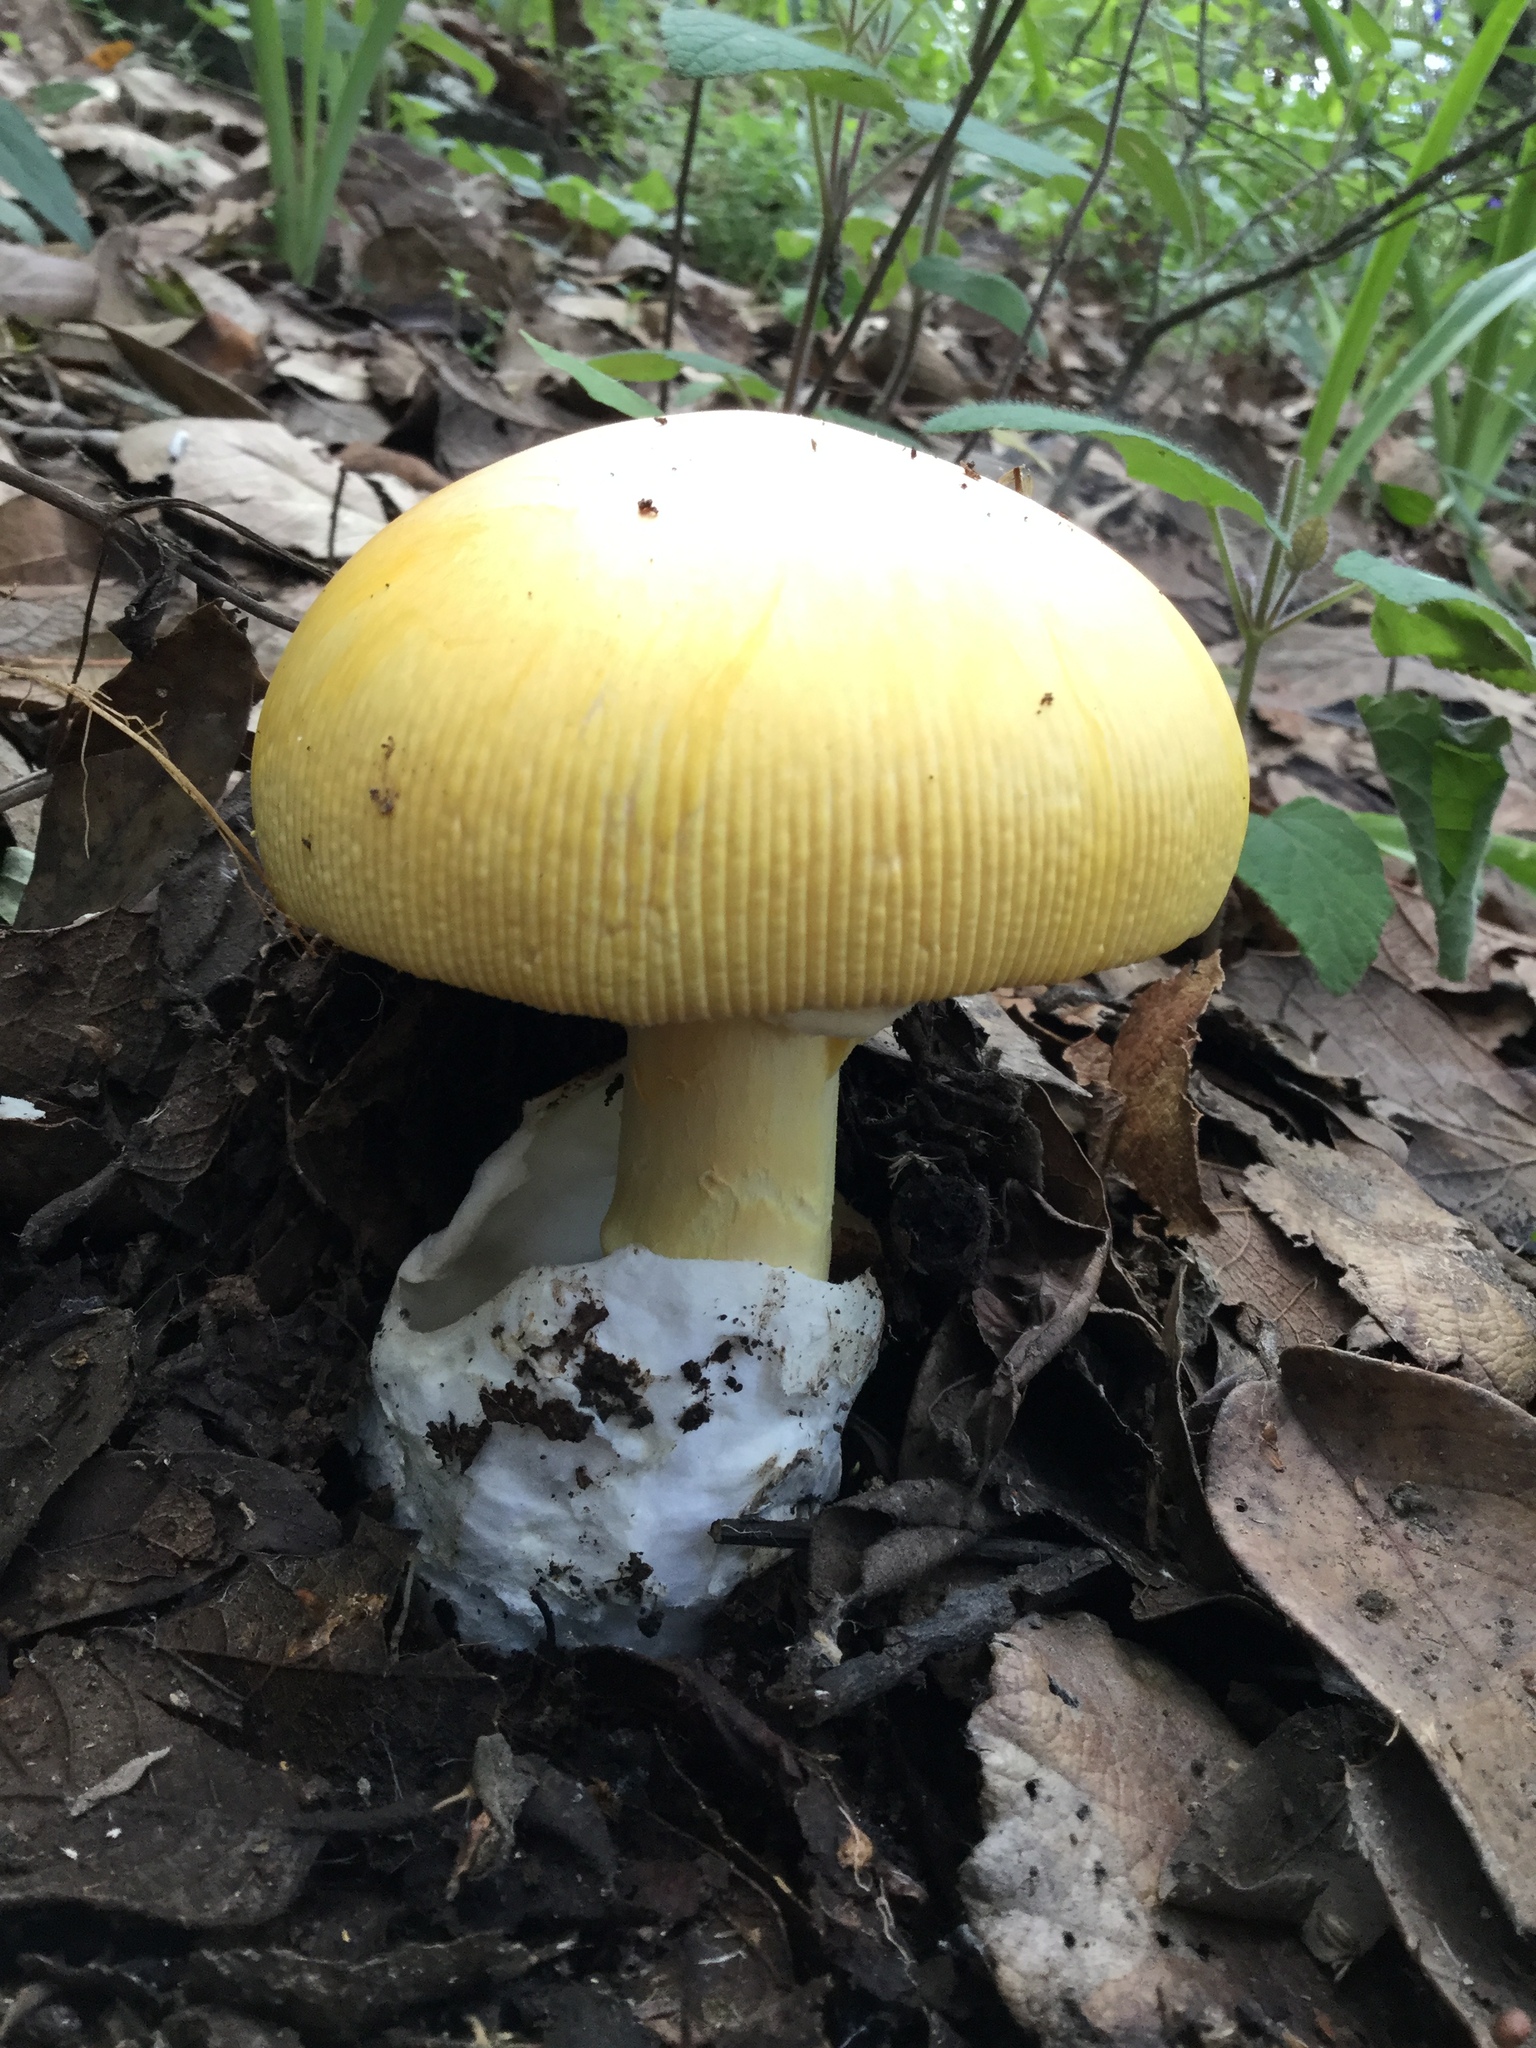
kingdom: Fungi
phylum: Basidiomycota
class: Agaricomycetes
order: Agaricales
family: Amanitaceae
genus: Amanita
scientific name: Amanita basii
